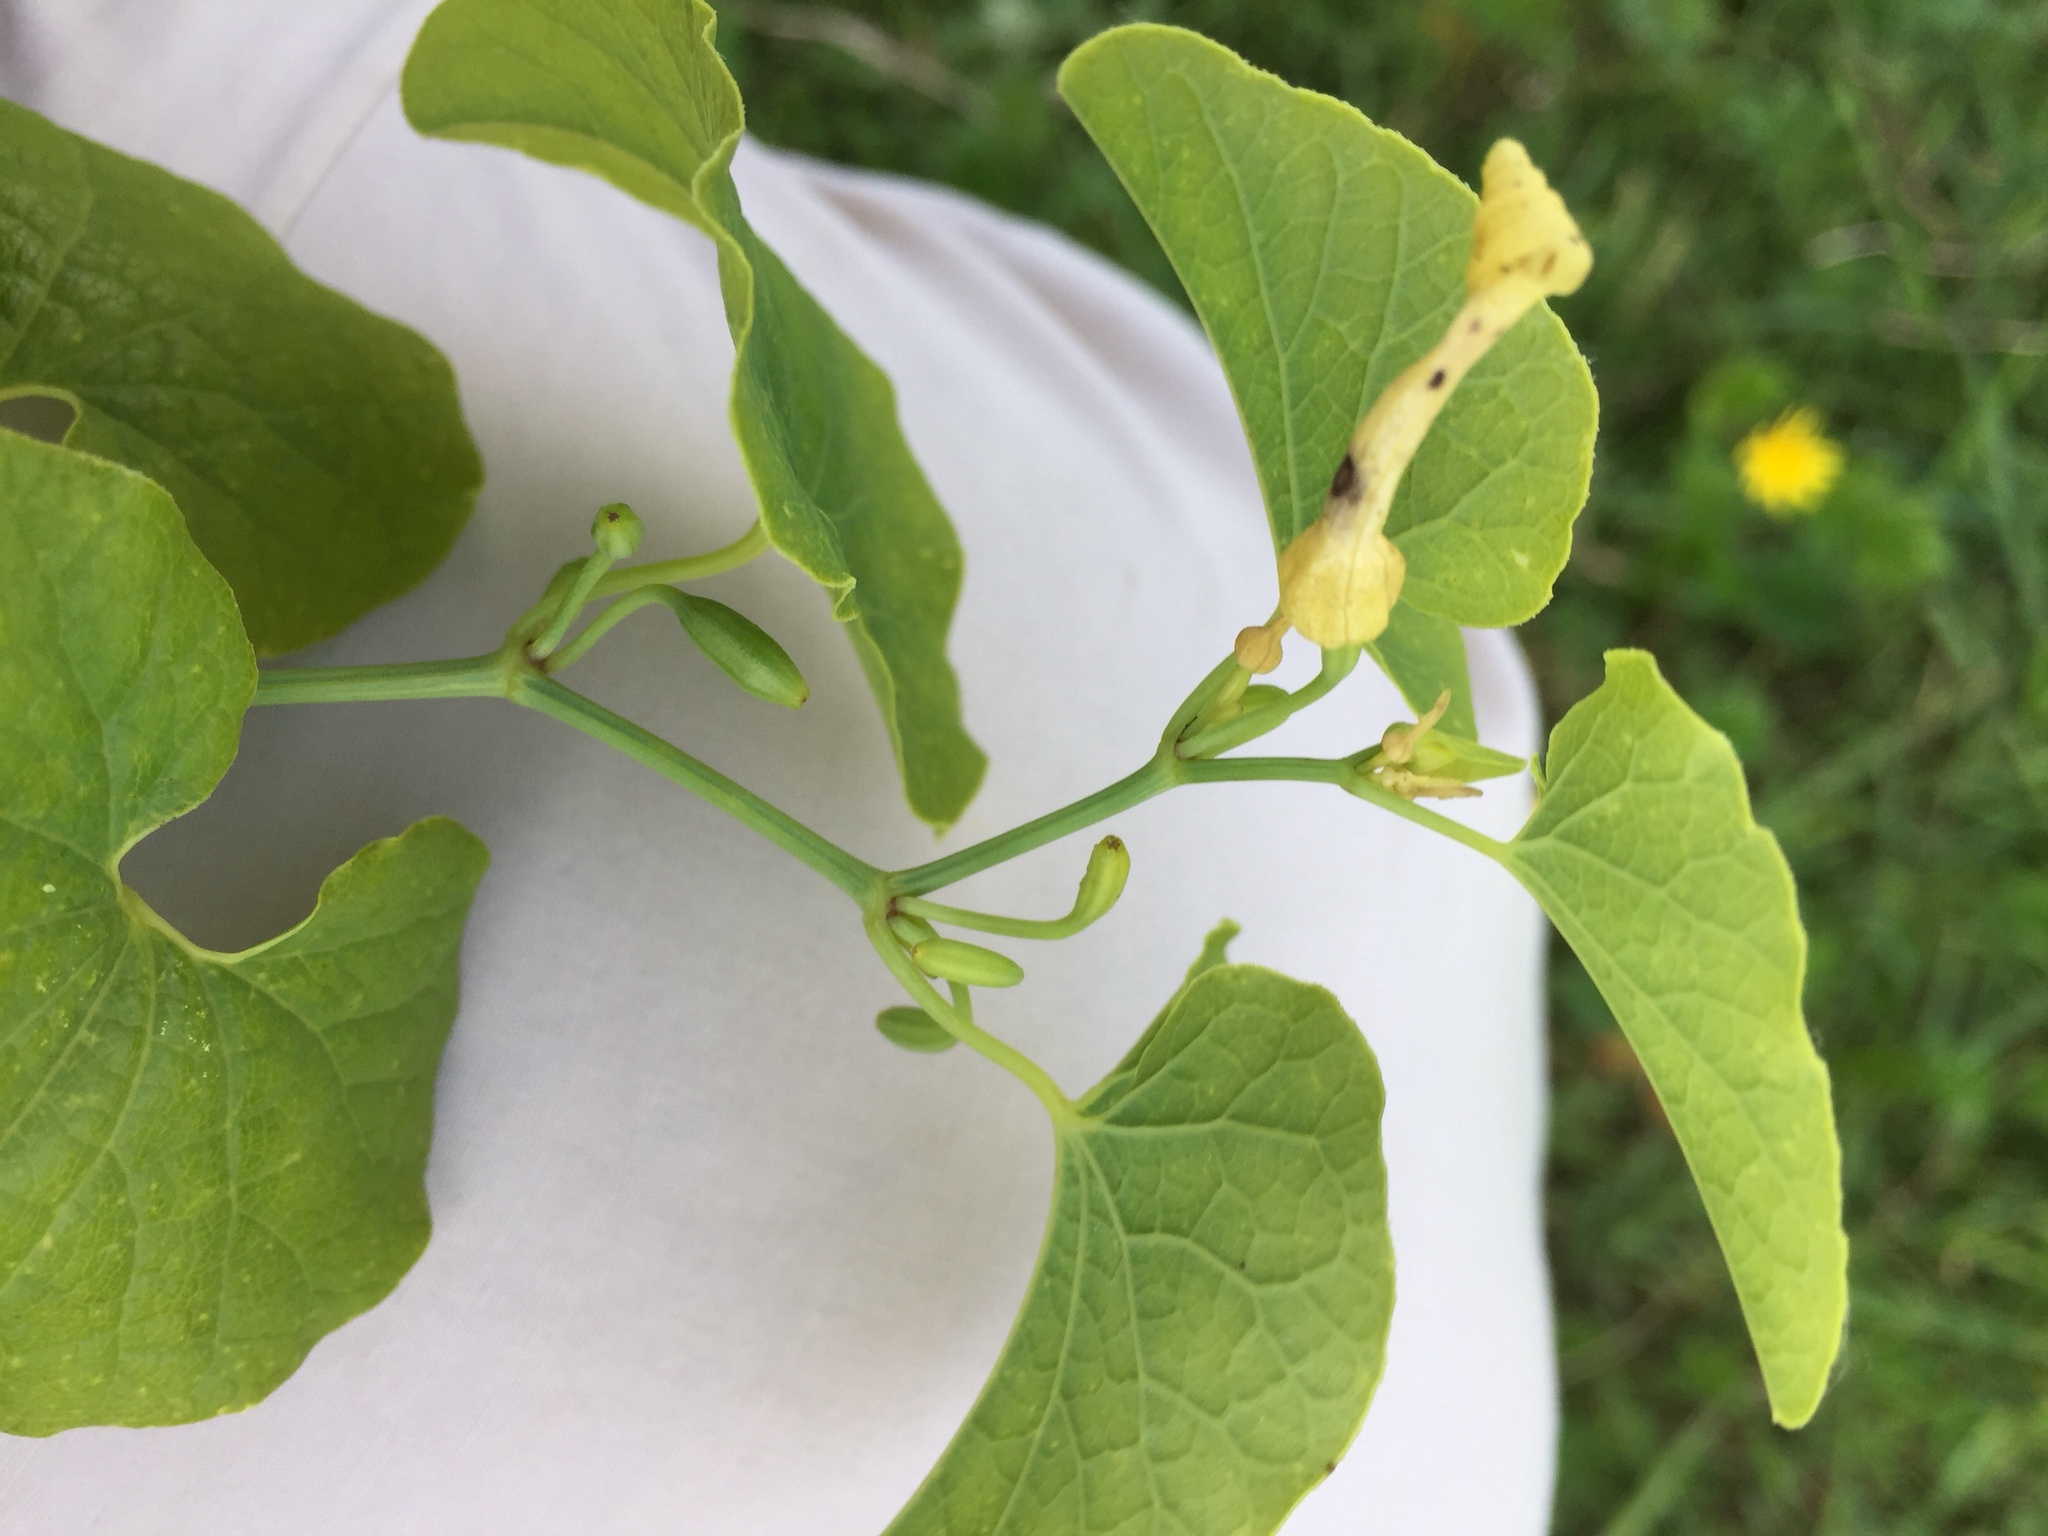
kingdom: Plantae
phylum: Tracheophyta
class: Magnoliopsida
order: Piperales
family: Aristolochiaceae
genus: Aristolochia
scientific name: Aristolochia clematitis
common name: Birthwort
